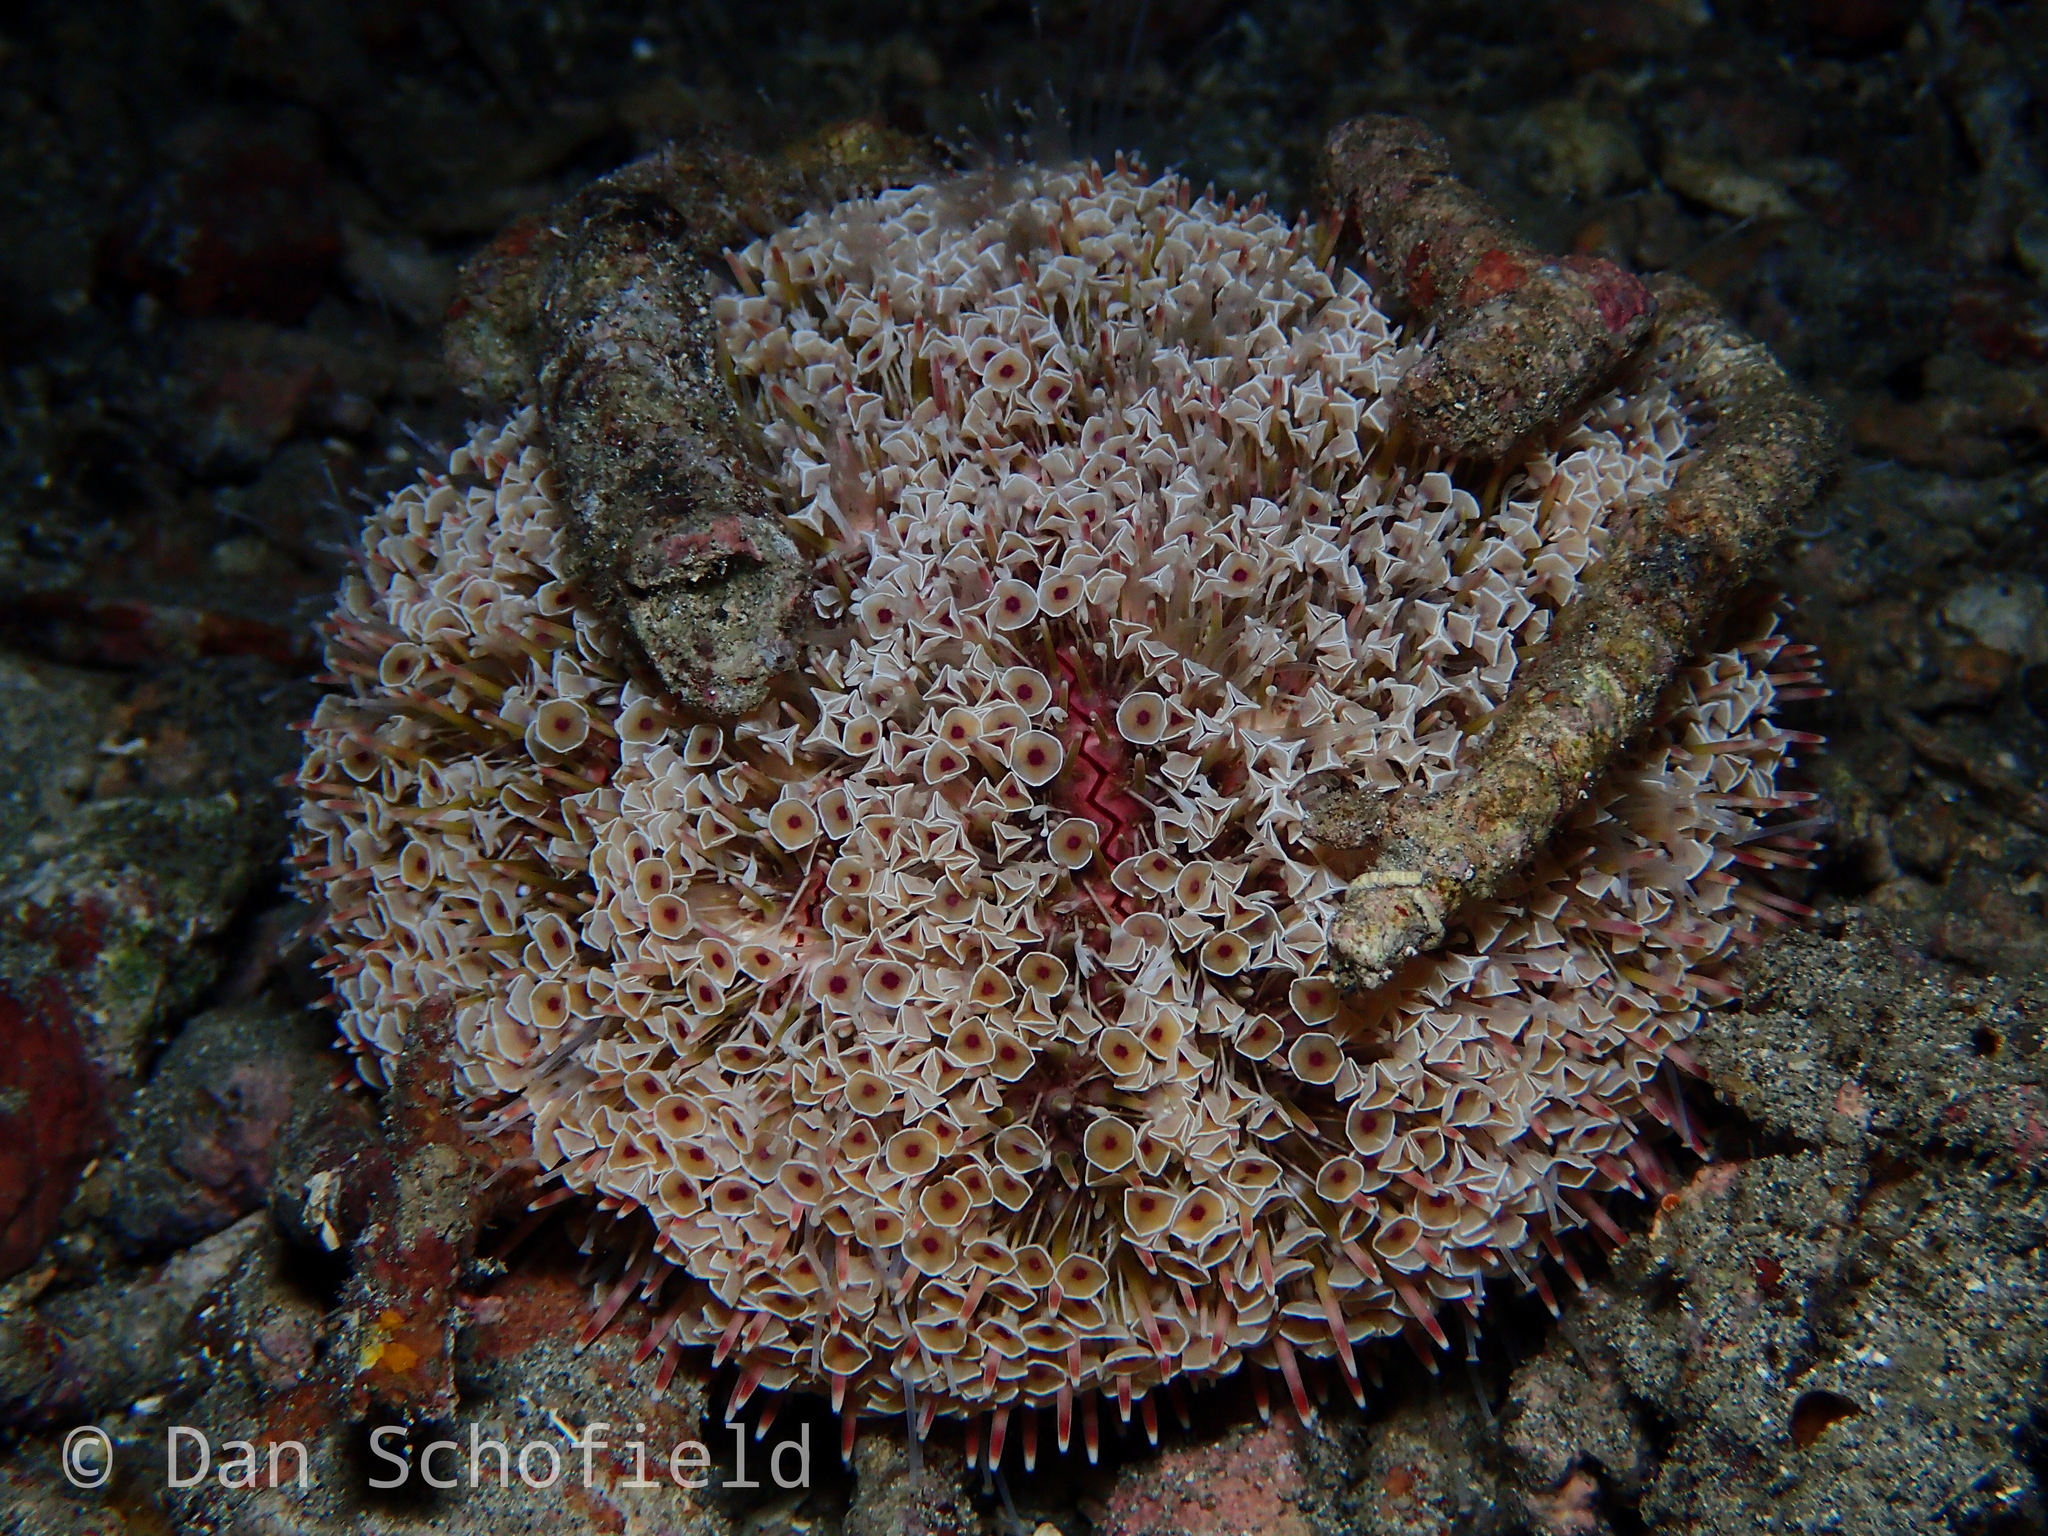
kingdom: Animalia
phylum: Echinodermata
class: Echinoidea
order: Camarodonta
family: Toxopneustidae
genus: Toxopneustes
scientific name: Toxopneustes pileolus
